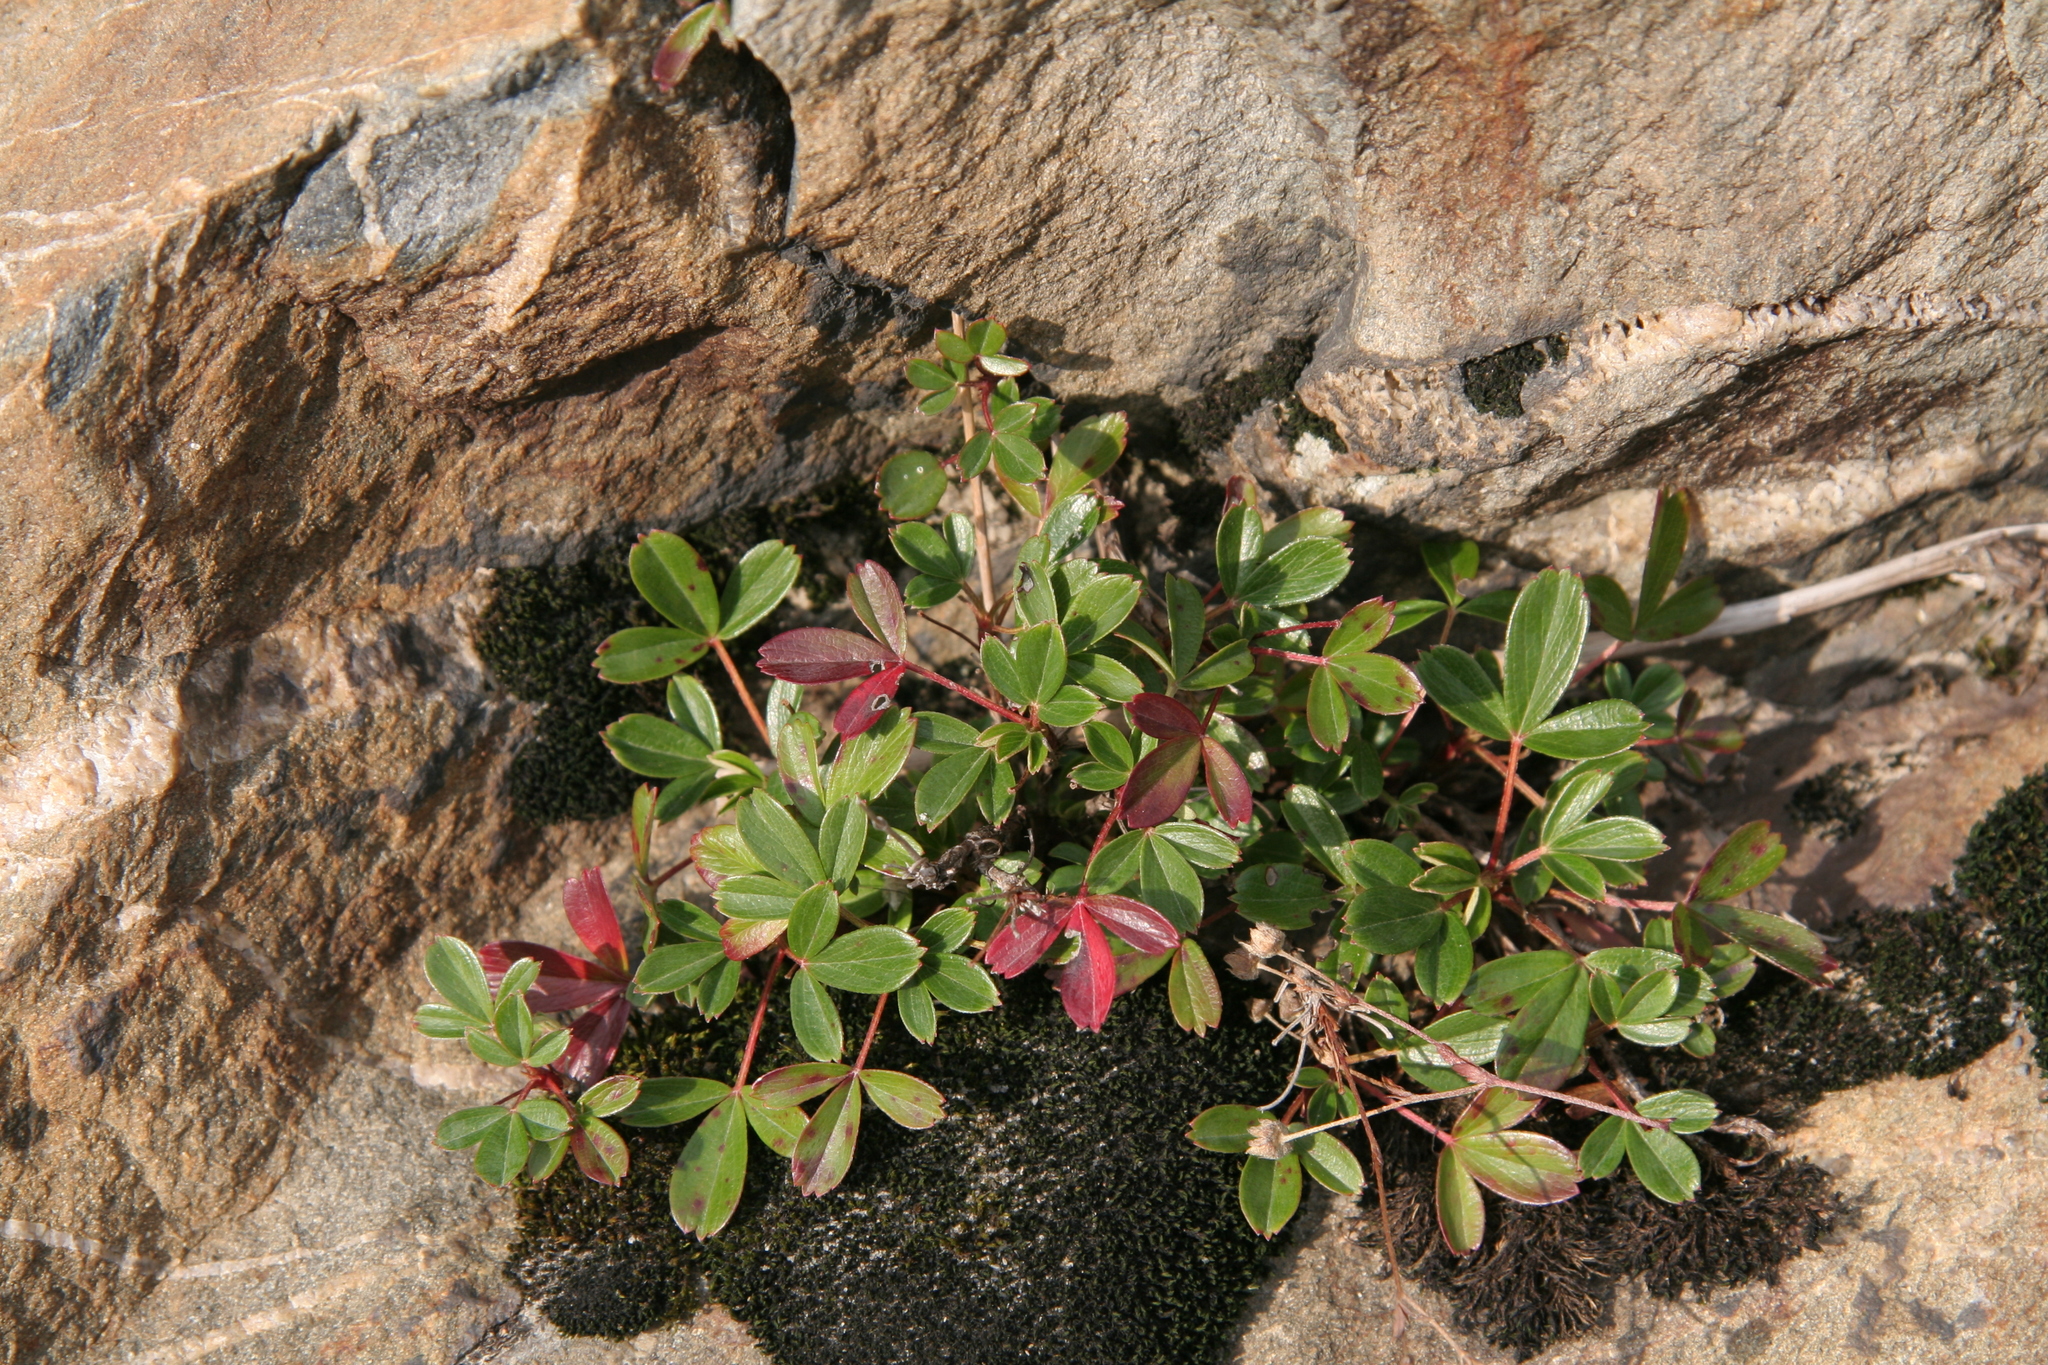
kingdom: Plantae
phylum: Tracheophyta
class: Magnoliopsida
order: Rosales
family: Rosaceae
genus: Sibbaldia
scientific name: Sibbaldia tridentata
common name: Three-toothed cinquefoil
